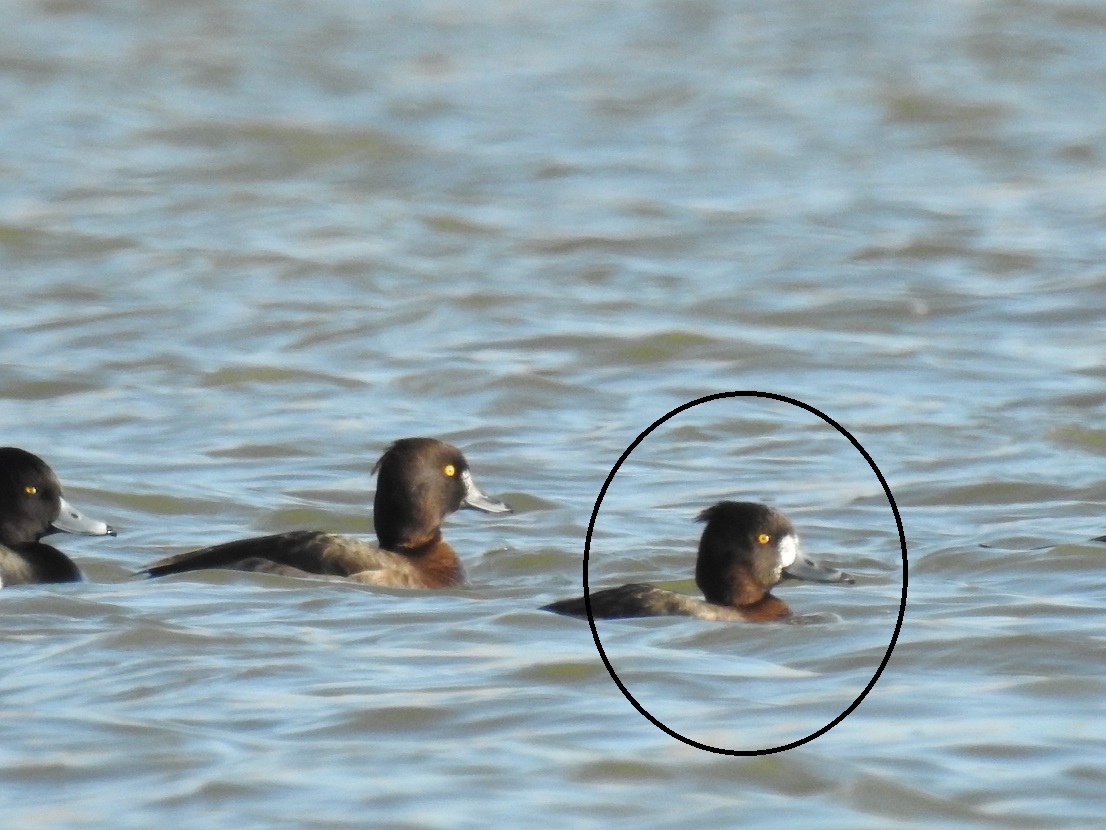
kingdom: Animalia
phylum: Chordata
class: Aves
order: Anseriformes
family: Anatidae
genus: Aythya
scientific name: Aythya fuligula
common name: Tufted duck
